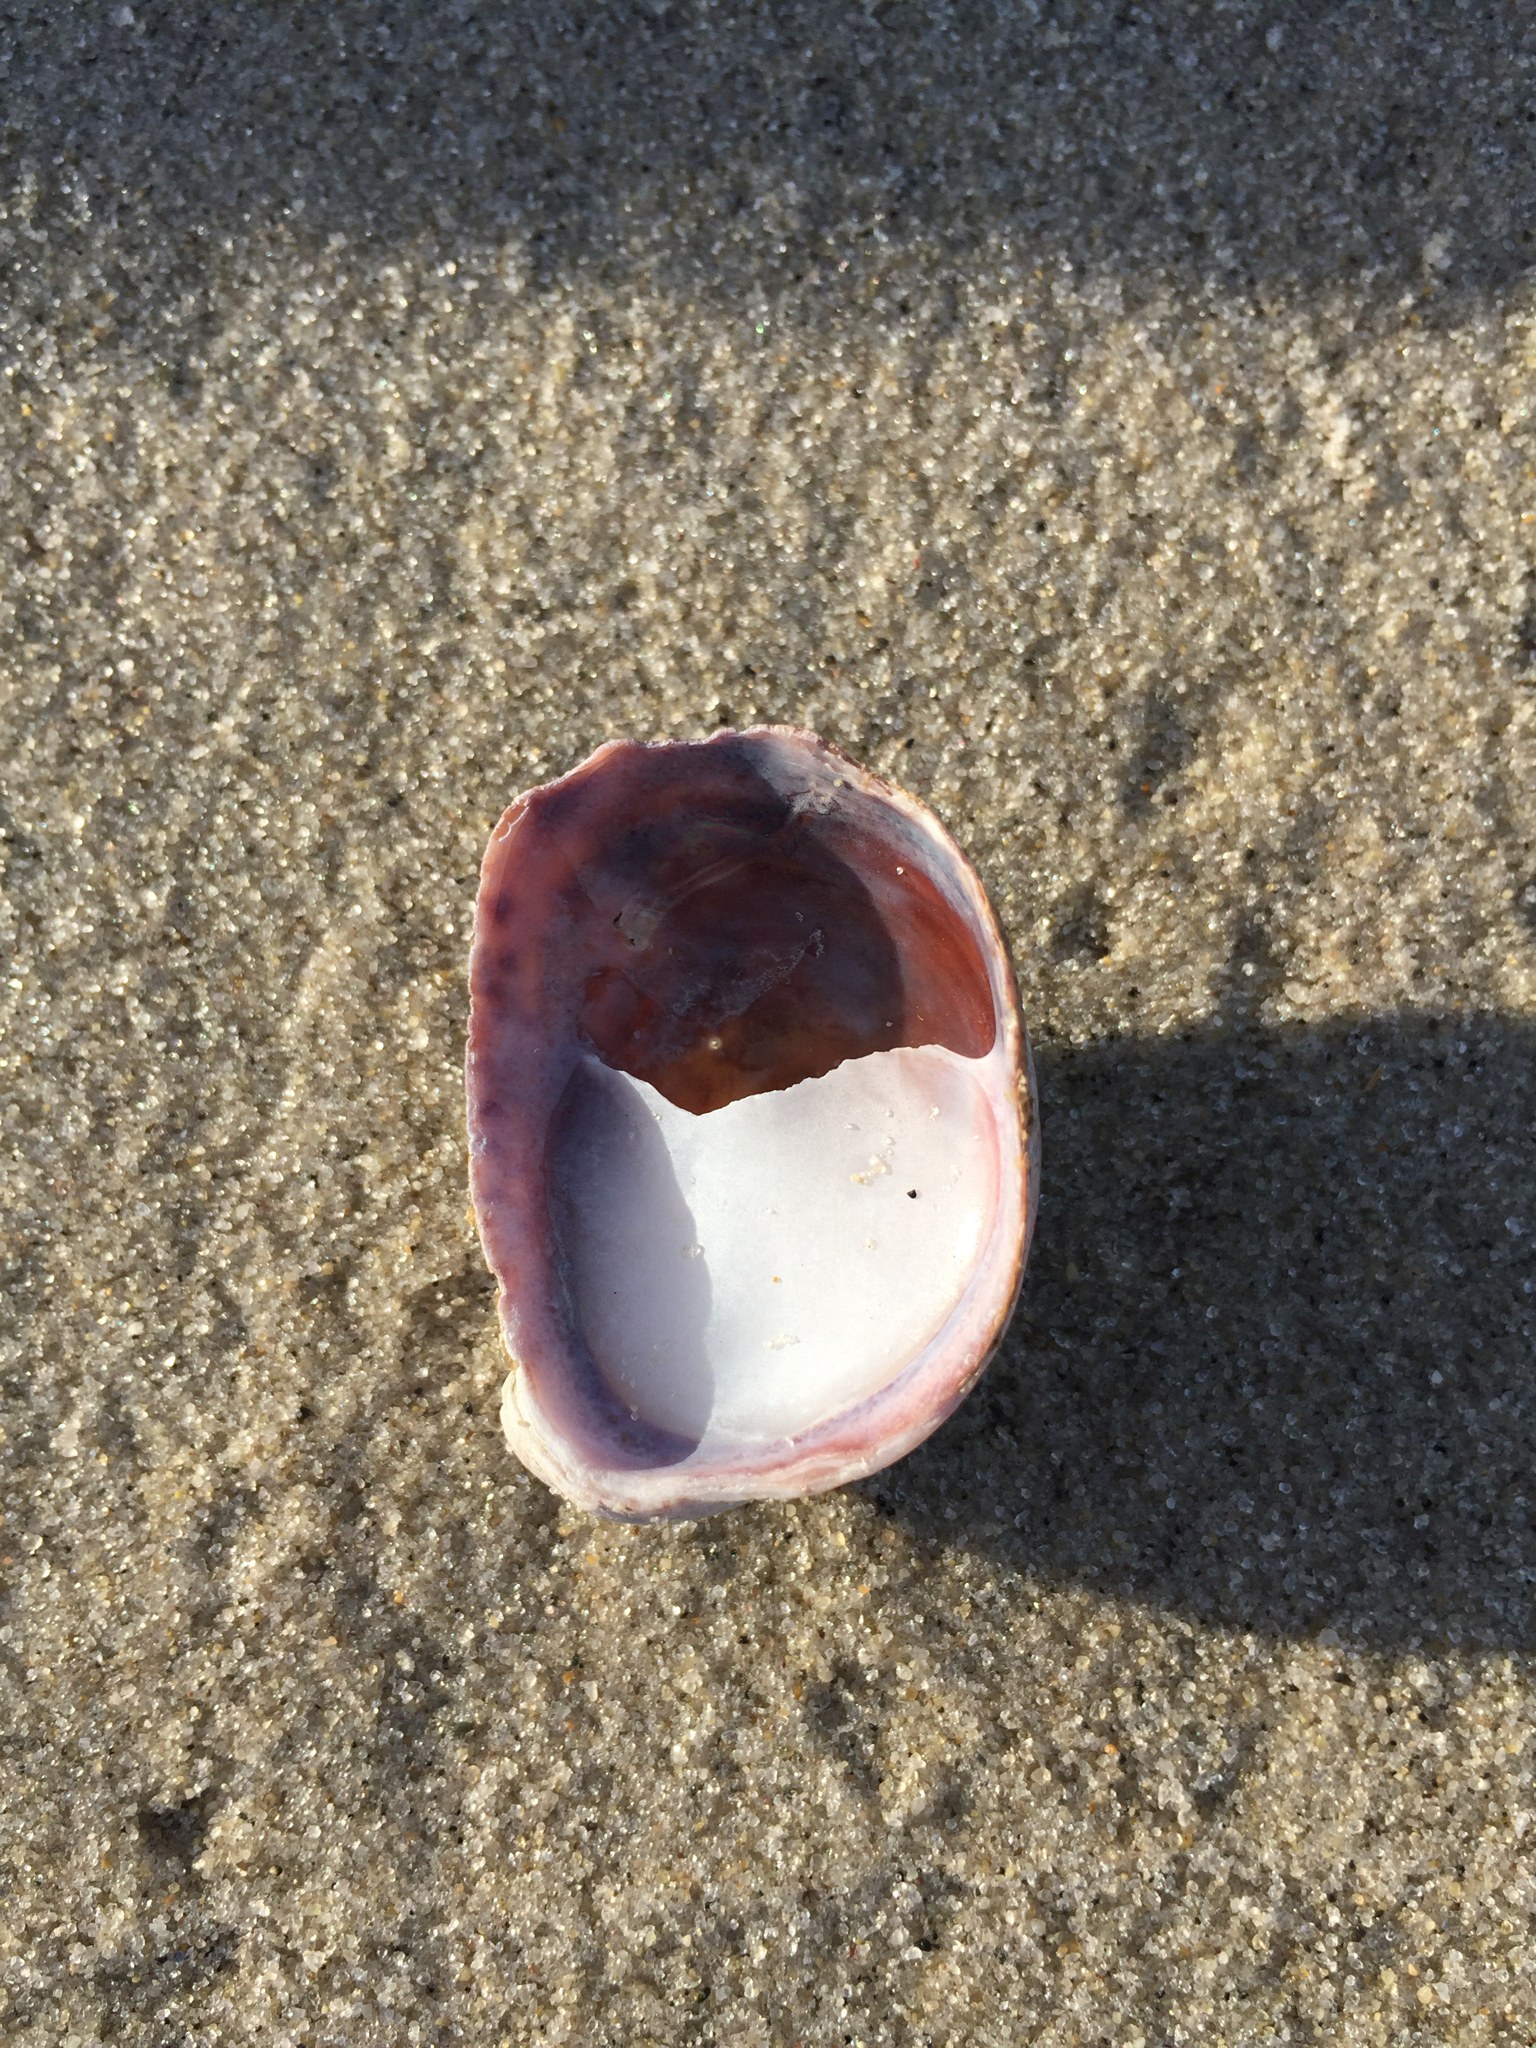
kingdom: Animalia
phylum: Mollusca
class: Gastropoda
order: Littorinimorpha
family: Calyptraeidae
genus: Crepidula
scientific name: Crepidula fornicata
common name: Slipper limpet
